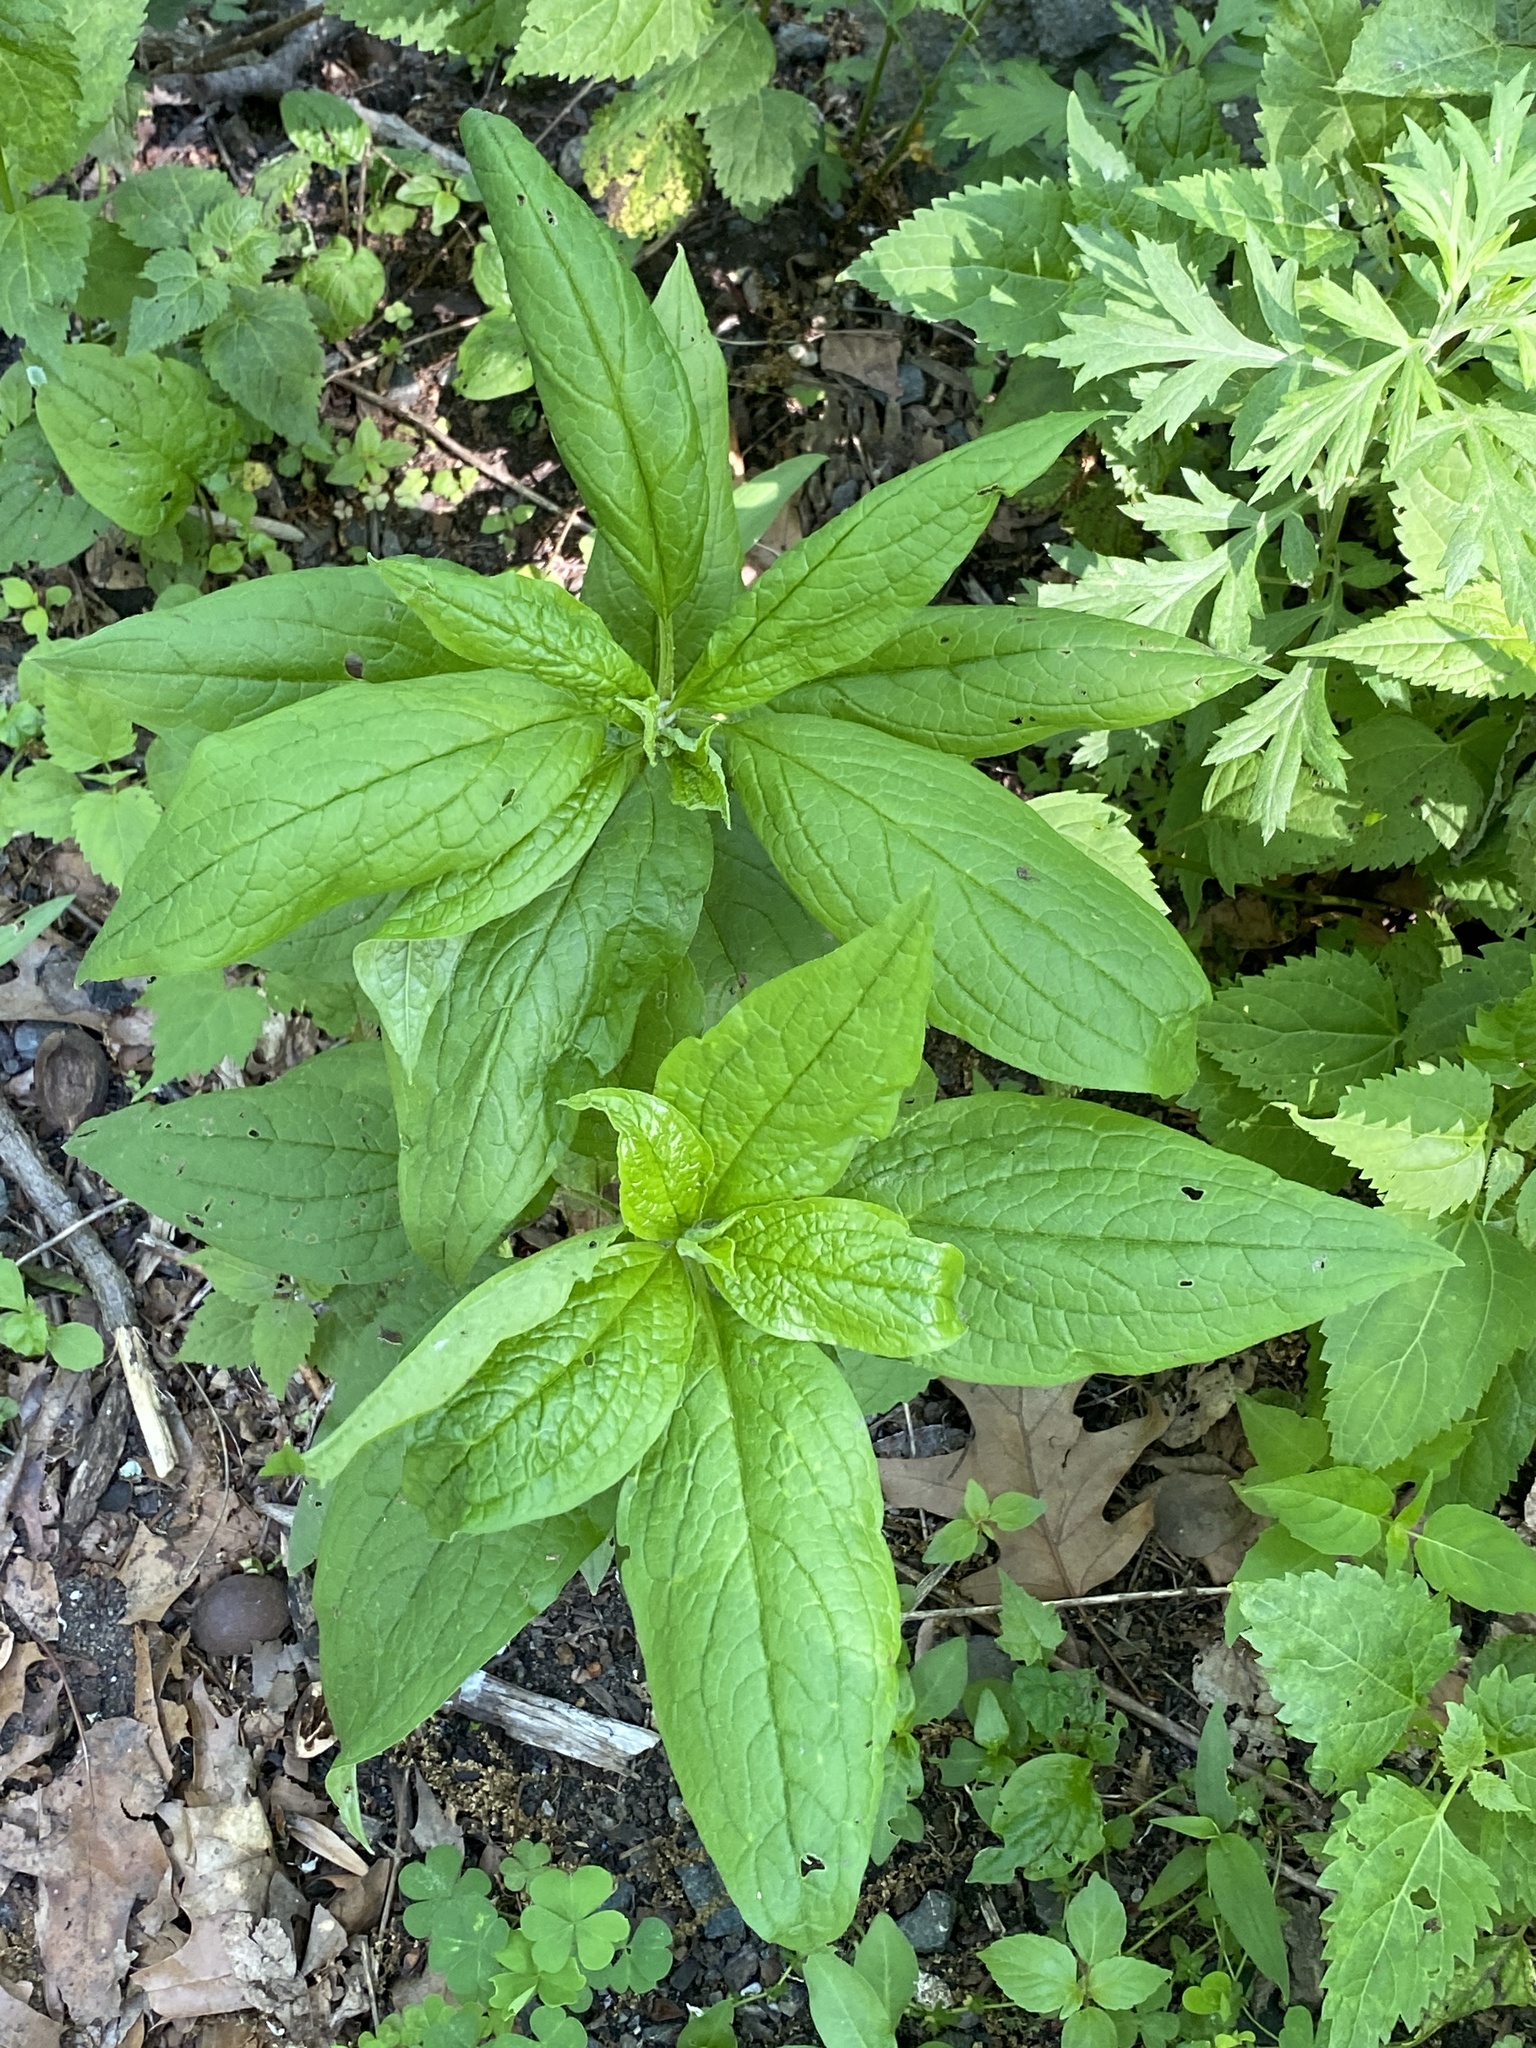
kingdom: Plantae
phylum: Tracheophyta
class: Magnoliopsida
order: Boraginales
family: Boraginaceae
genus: Hackelia
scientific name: Hackelia virginiana
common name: Beggar's-lice
